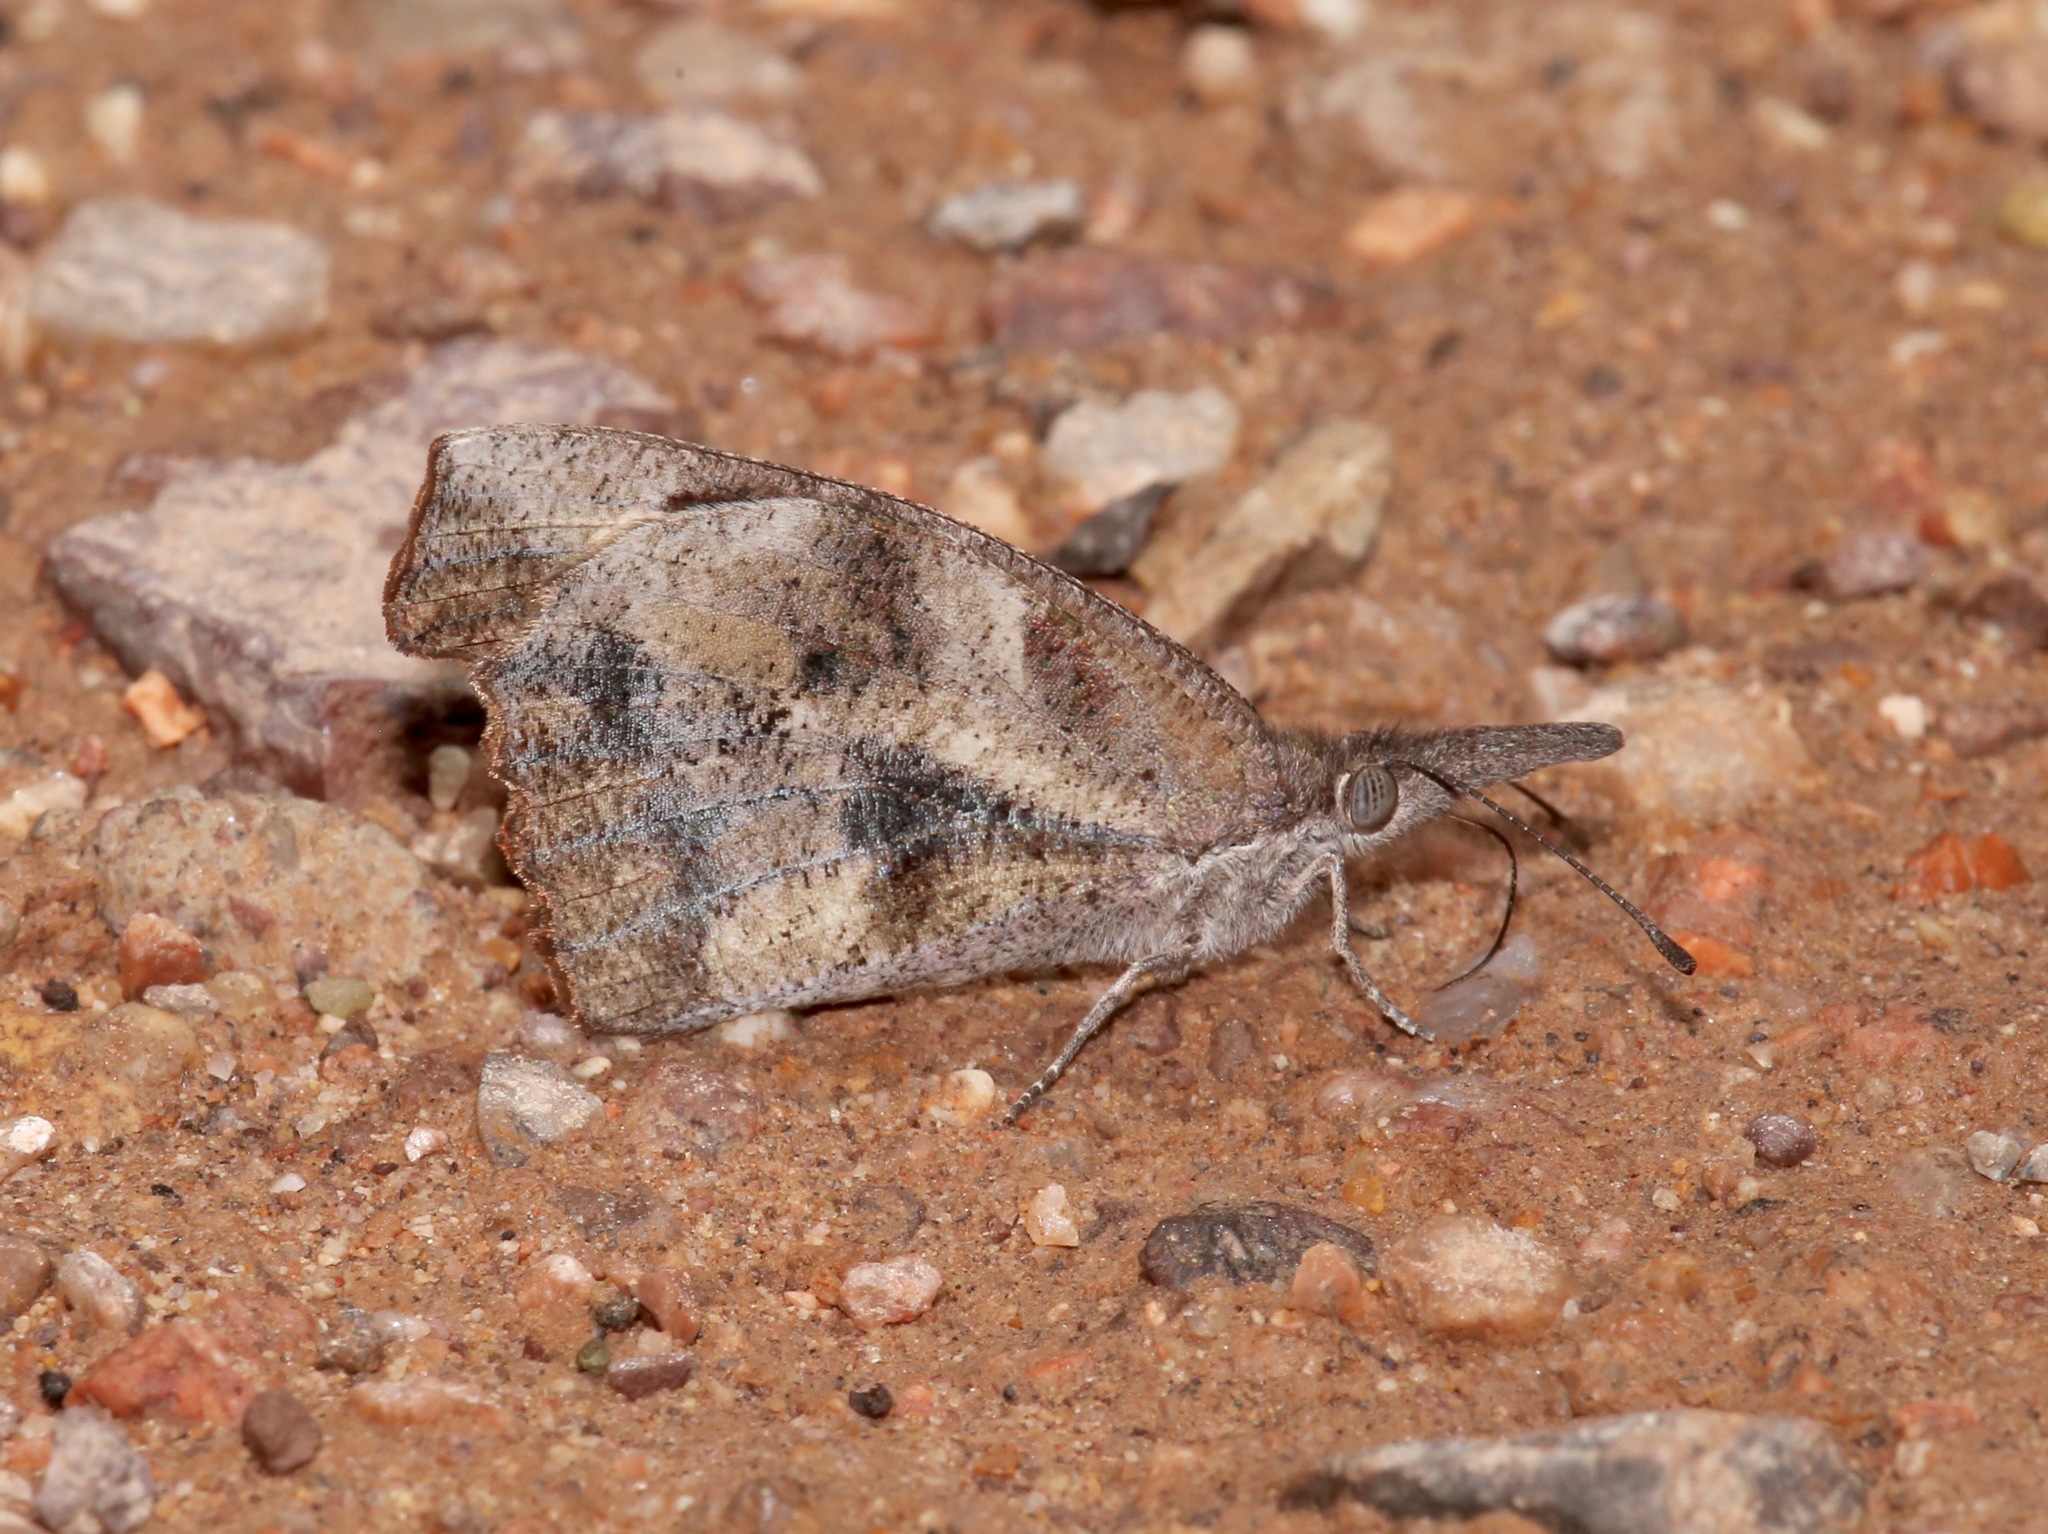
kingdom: Animalia
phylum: Arthropoda
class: Insecta
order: Lepidoptera
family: Nymphalidae
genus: Libytheana
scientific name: Libytheana carinenta
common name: American snout
